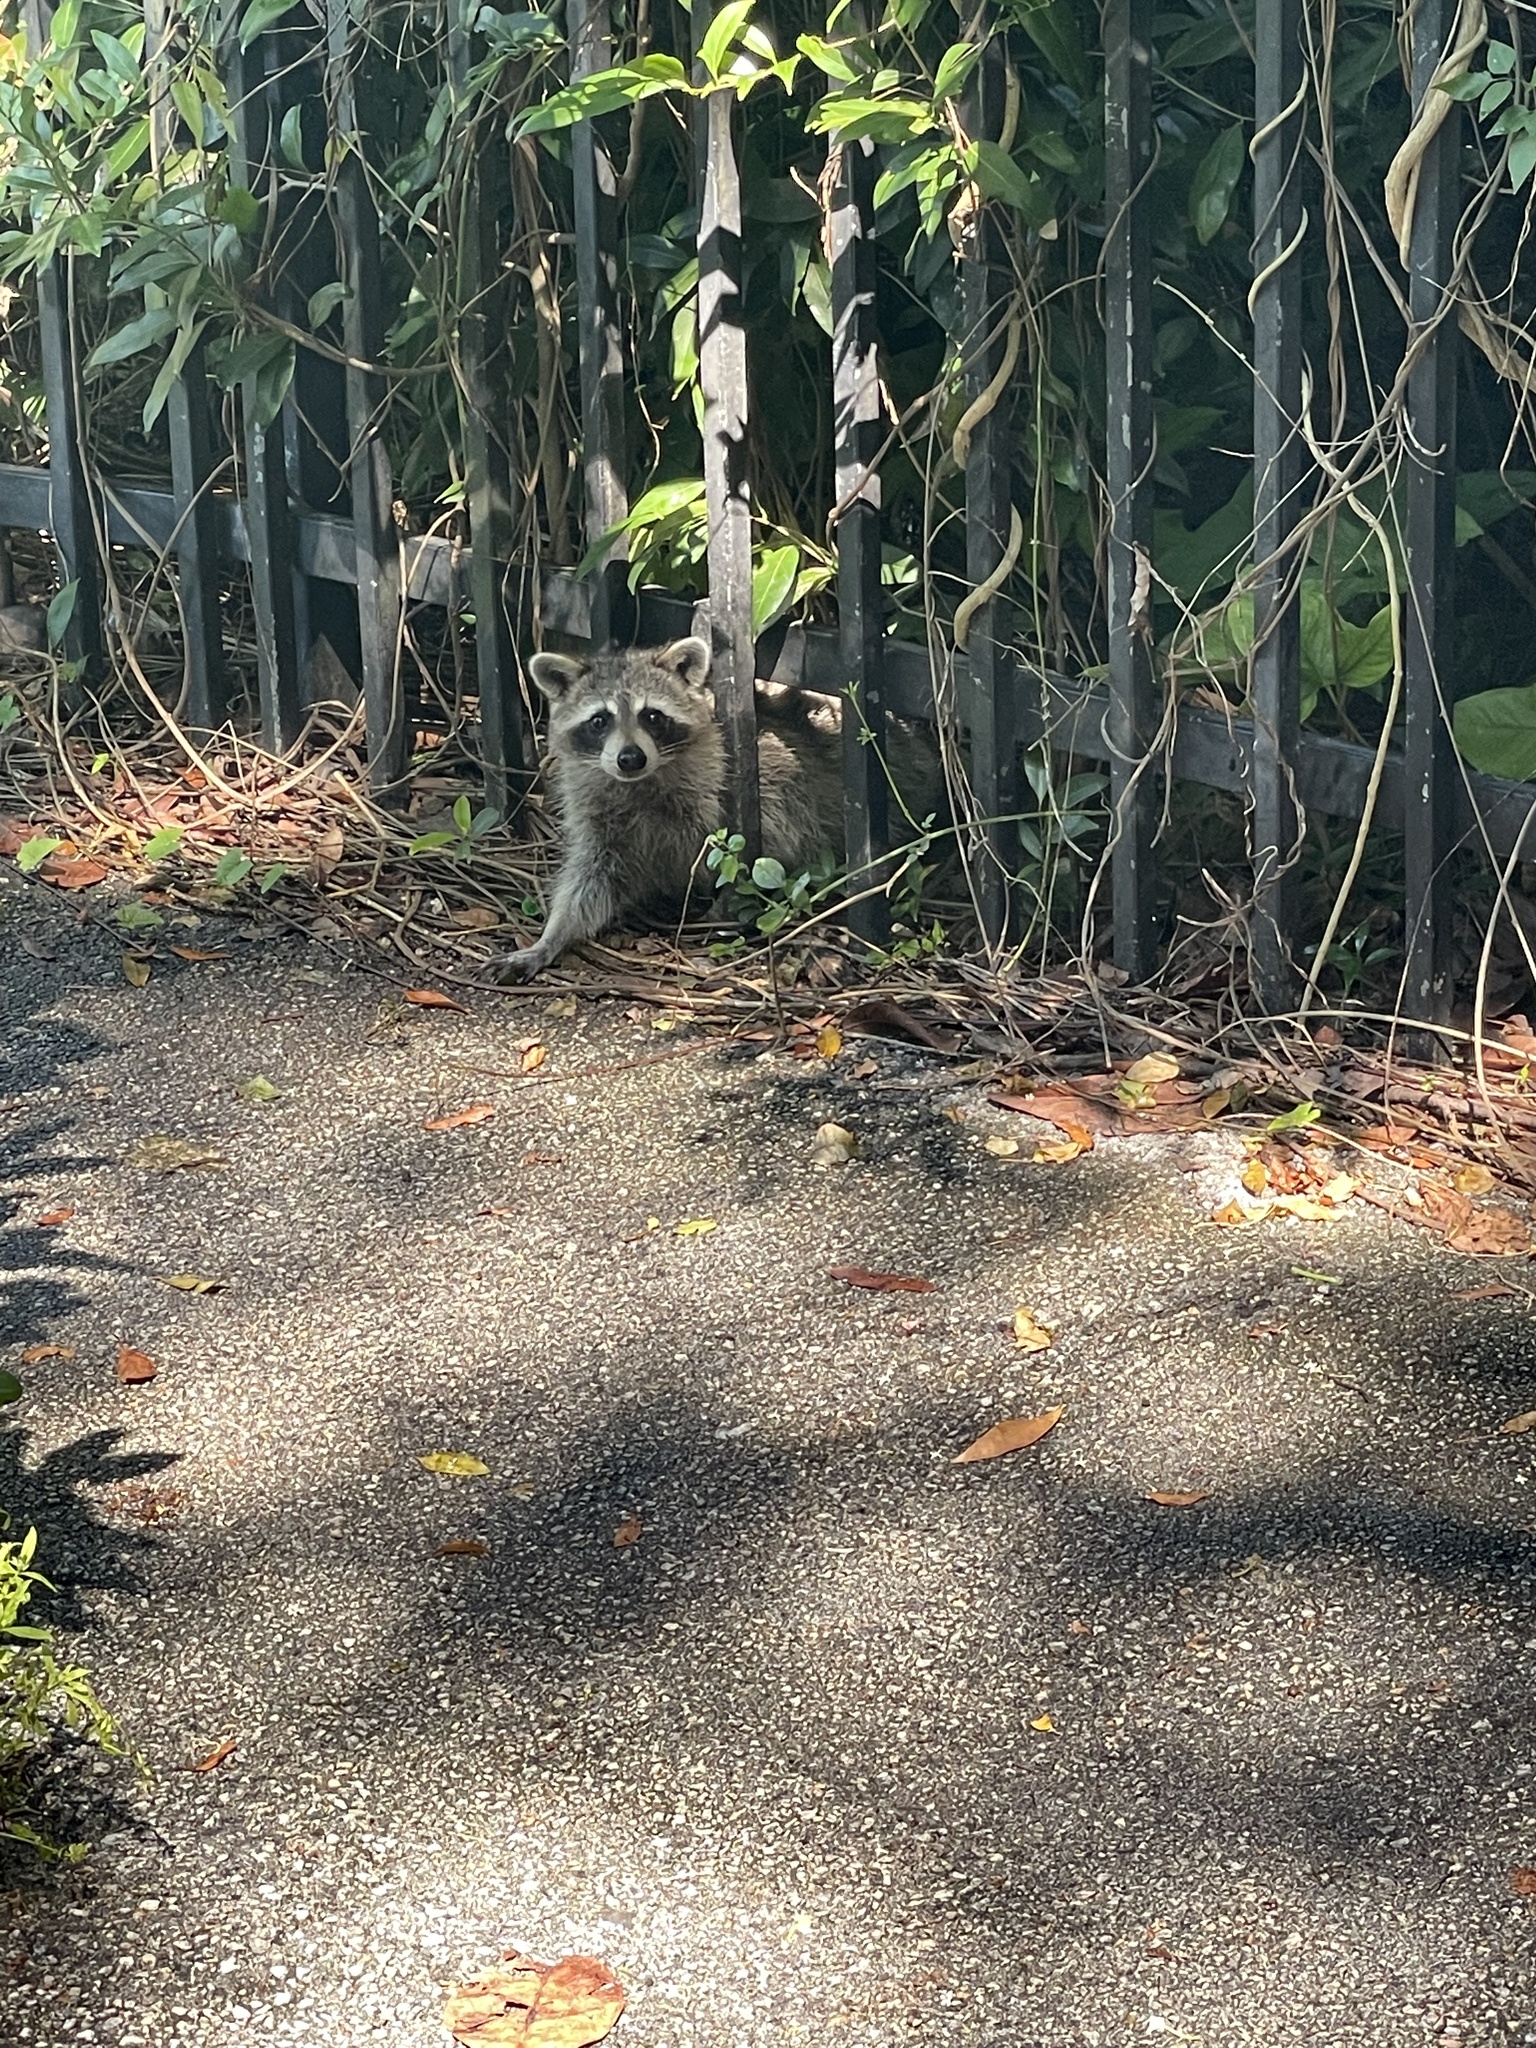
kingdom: Animalia
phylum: Chordata
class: Mammalia
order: Carnivora
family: Procyonidae
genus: Procyon
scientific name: Procyon lotor
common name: Raccoon
